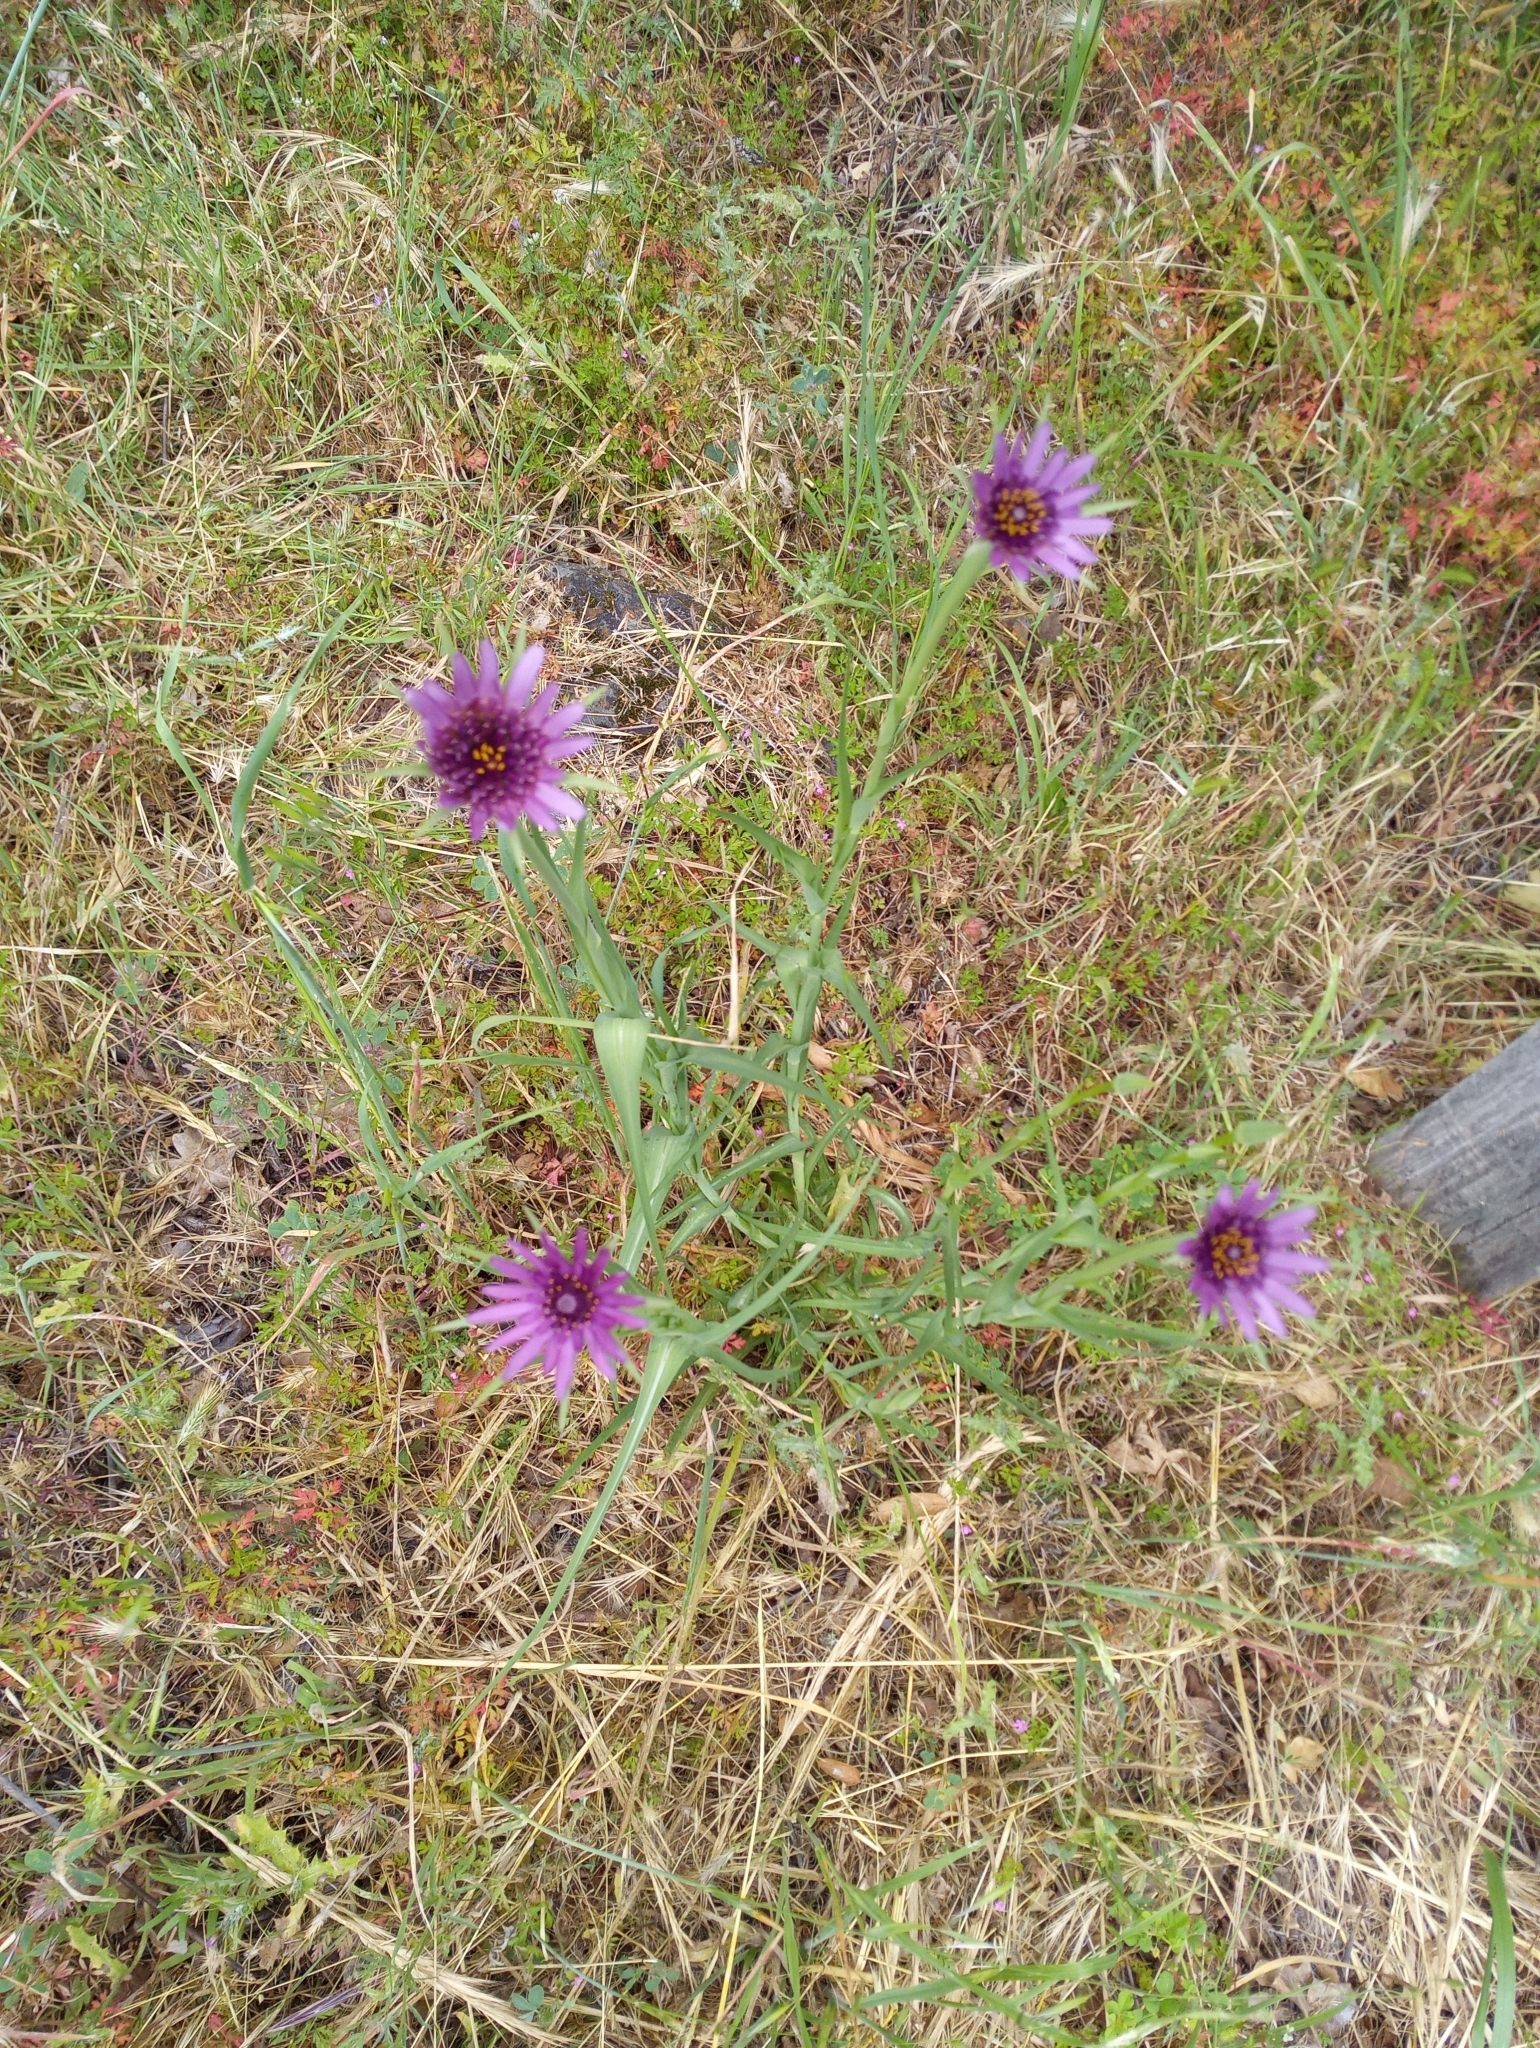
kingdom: Plantae
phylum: Tracheophyta
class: Magnoliopsida
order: Asterales
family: Asteraceae
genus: Tragopogon
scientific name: Tragopogon porrifolius
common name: Salsify
